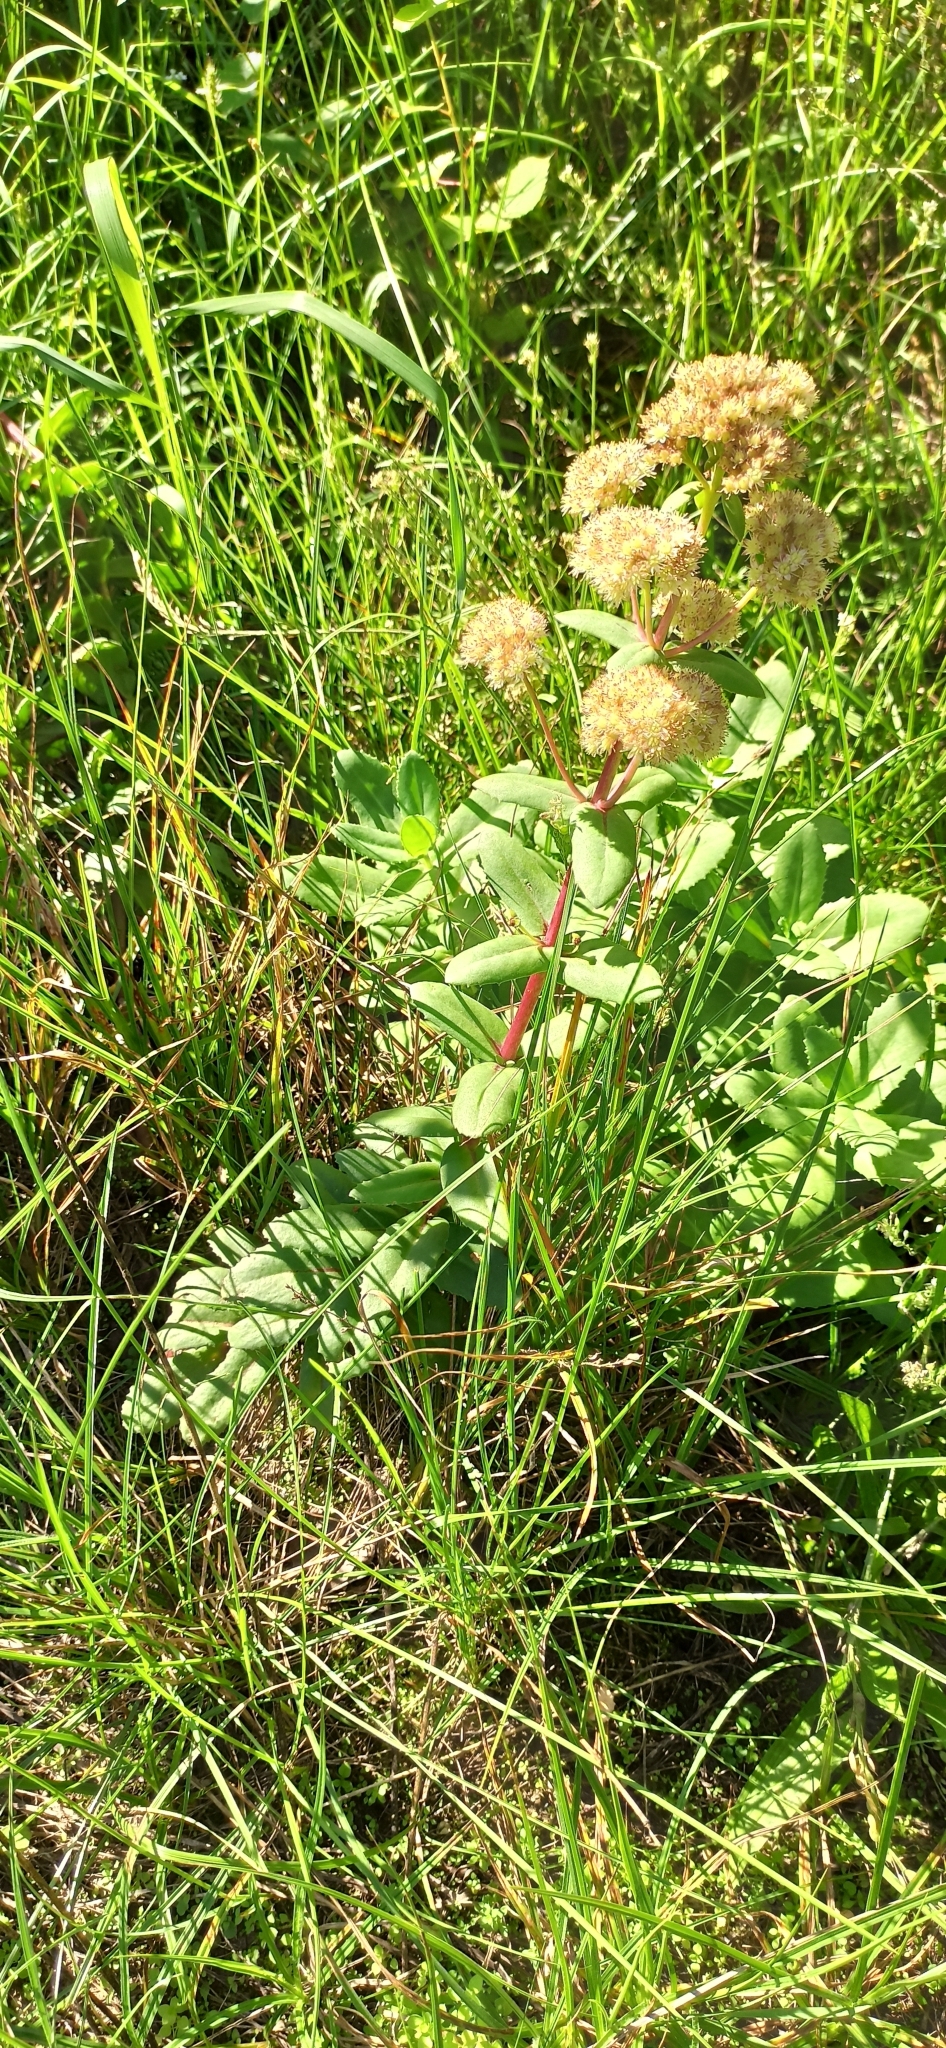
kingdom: Plantae
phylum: Tracheophyta
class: Magnoliopsida
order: Saxifragales
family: Crassulaceae
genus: Hylotelephium
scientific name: Hylotelephium maximum
